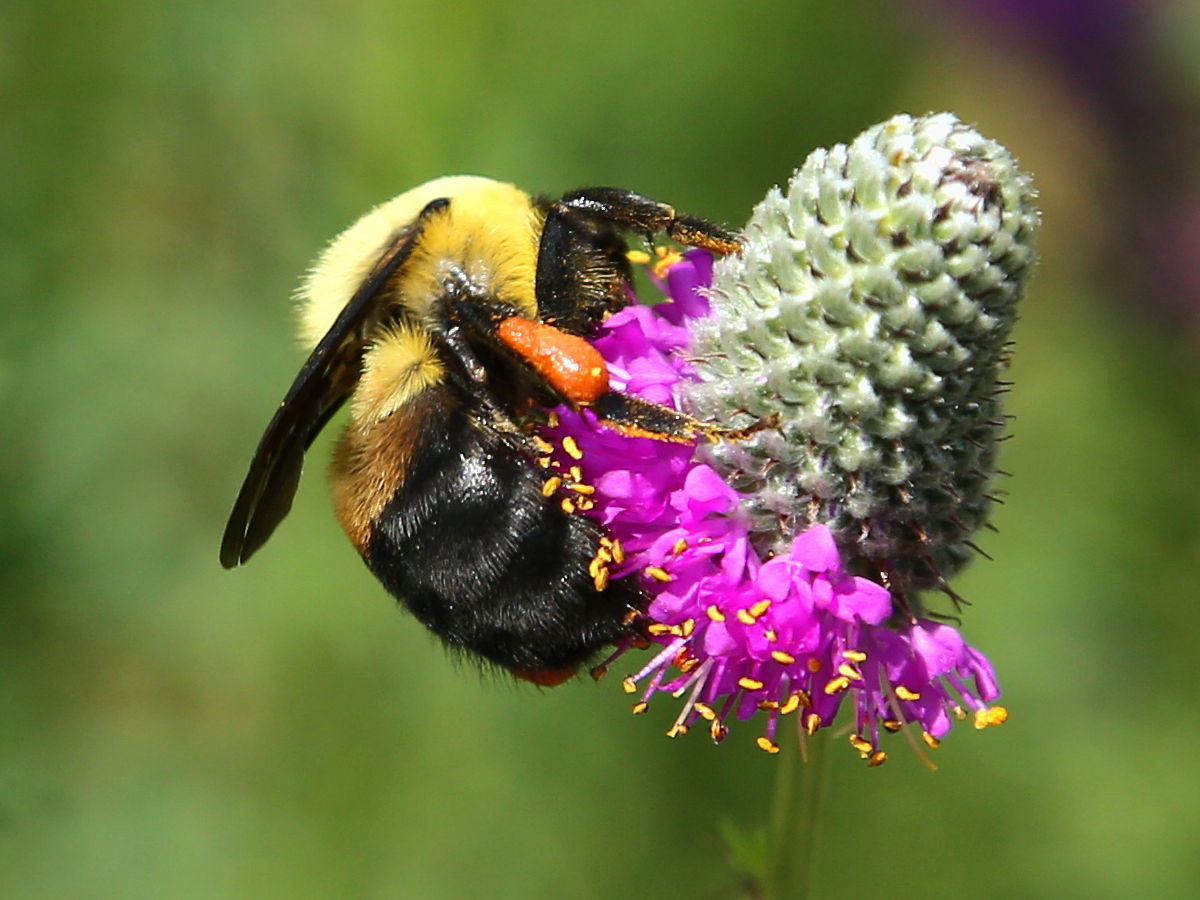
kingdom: Animalia
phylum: Arthropoda
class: Insecta
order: Hymenoptera
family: Apidae
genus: Bombus
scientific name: Bombus griseocollis
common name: Brown-belted bumble bee
